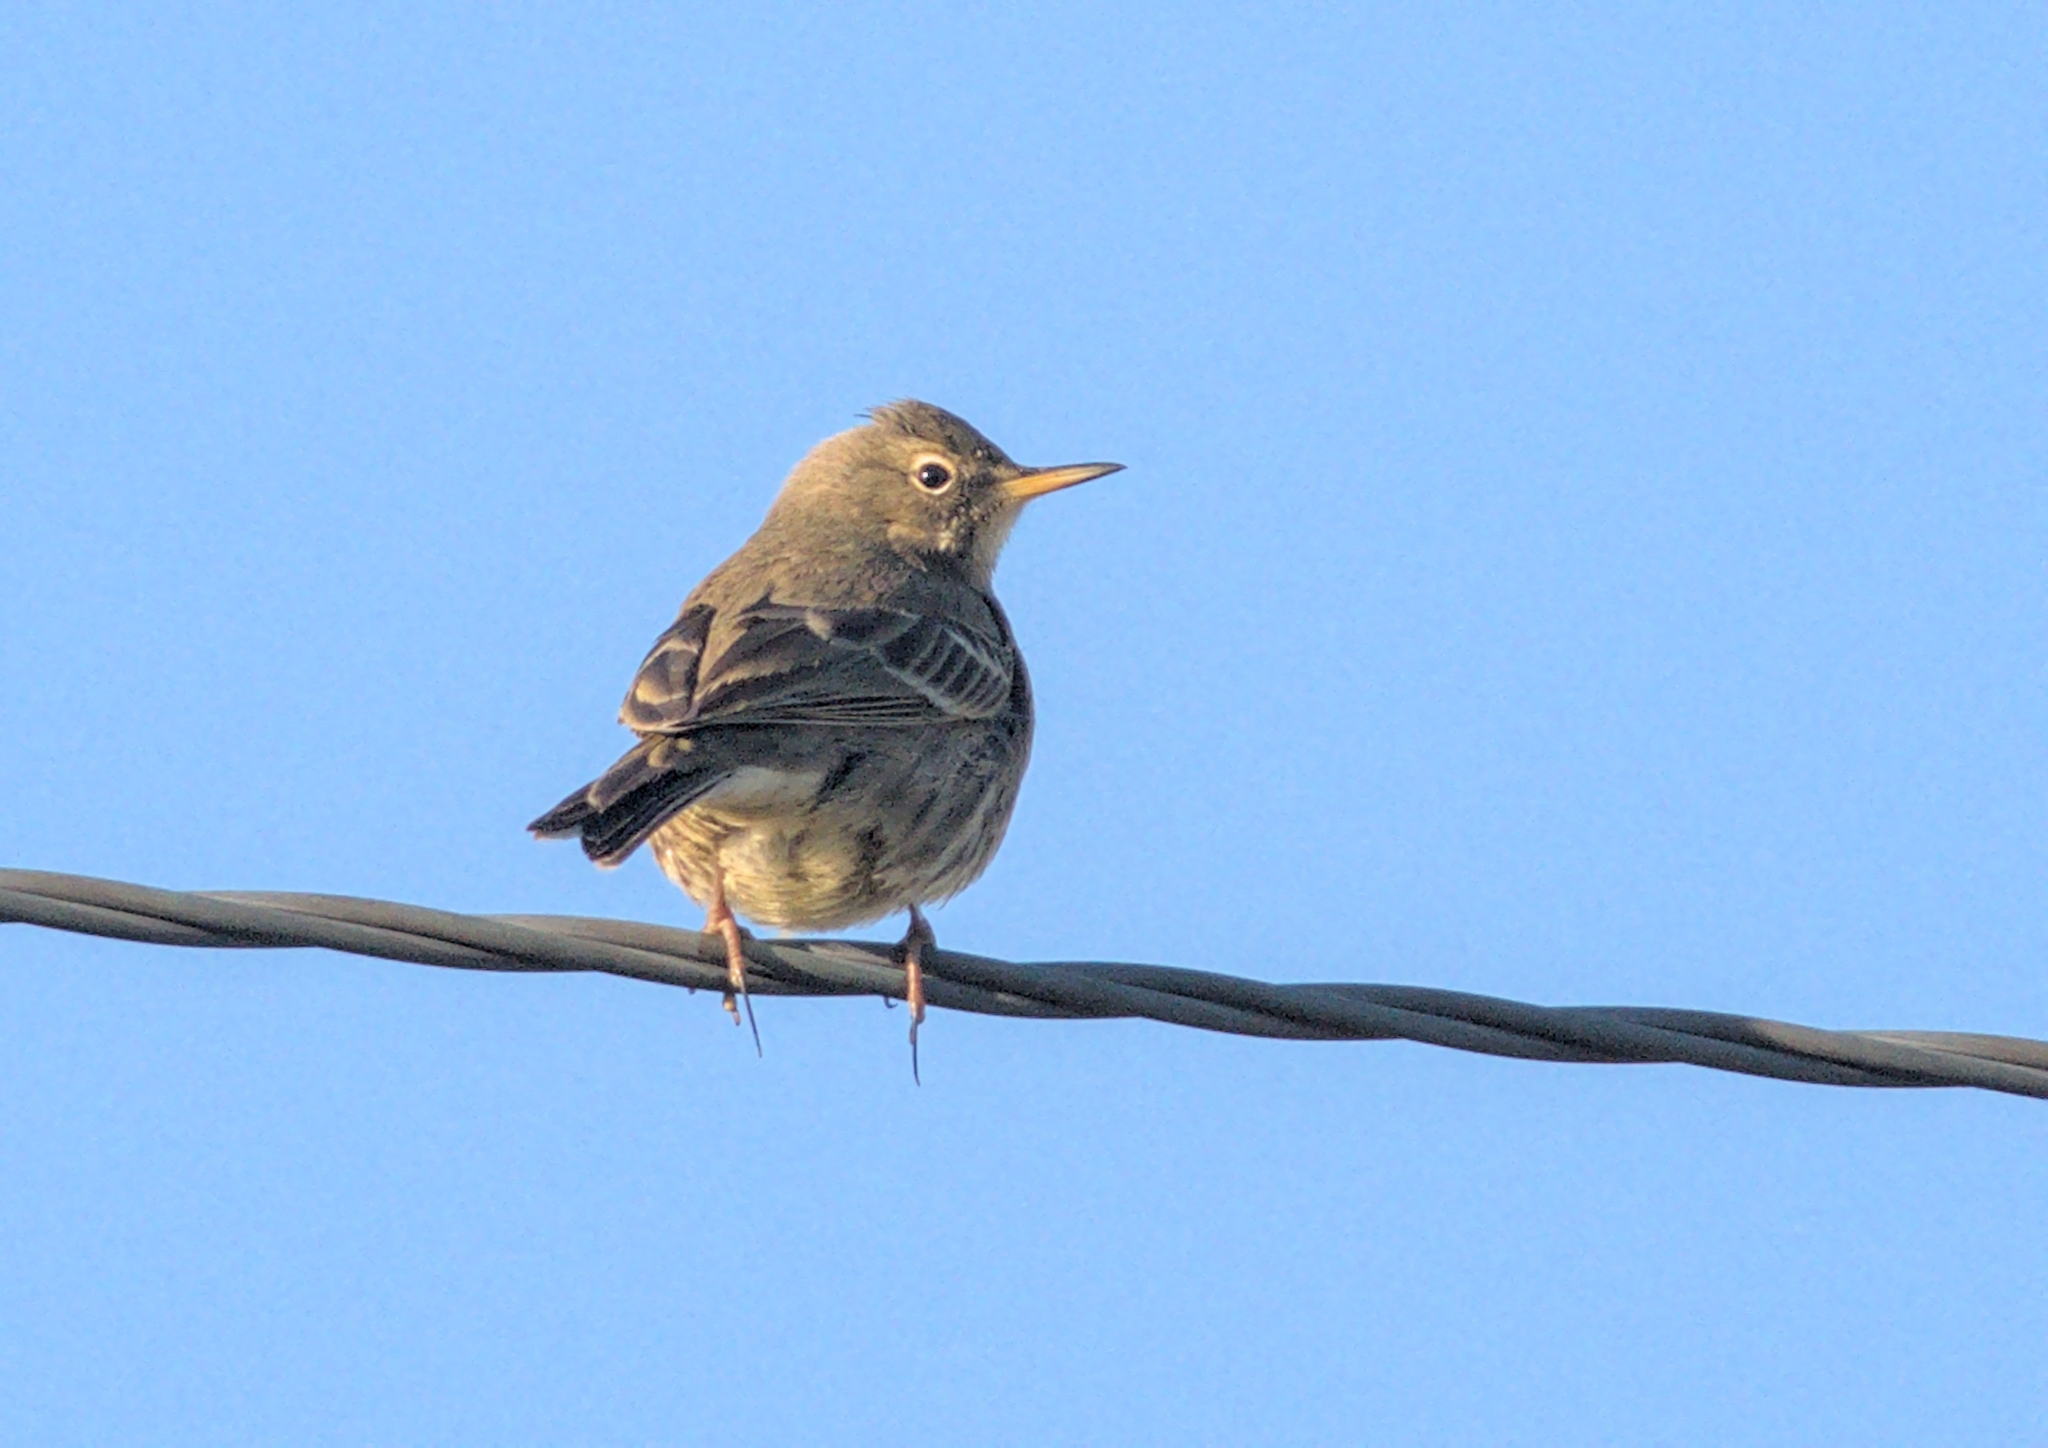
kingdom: Animalia
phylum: Chordata
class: Aves
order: Passeriformes
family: Motacillidae
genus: Anthus
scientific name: Anthus spinoletta
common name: Water pipit
